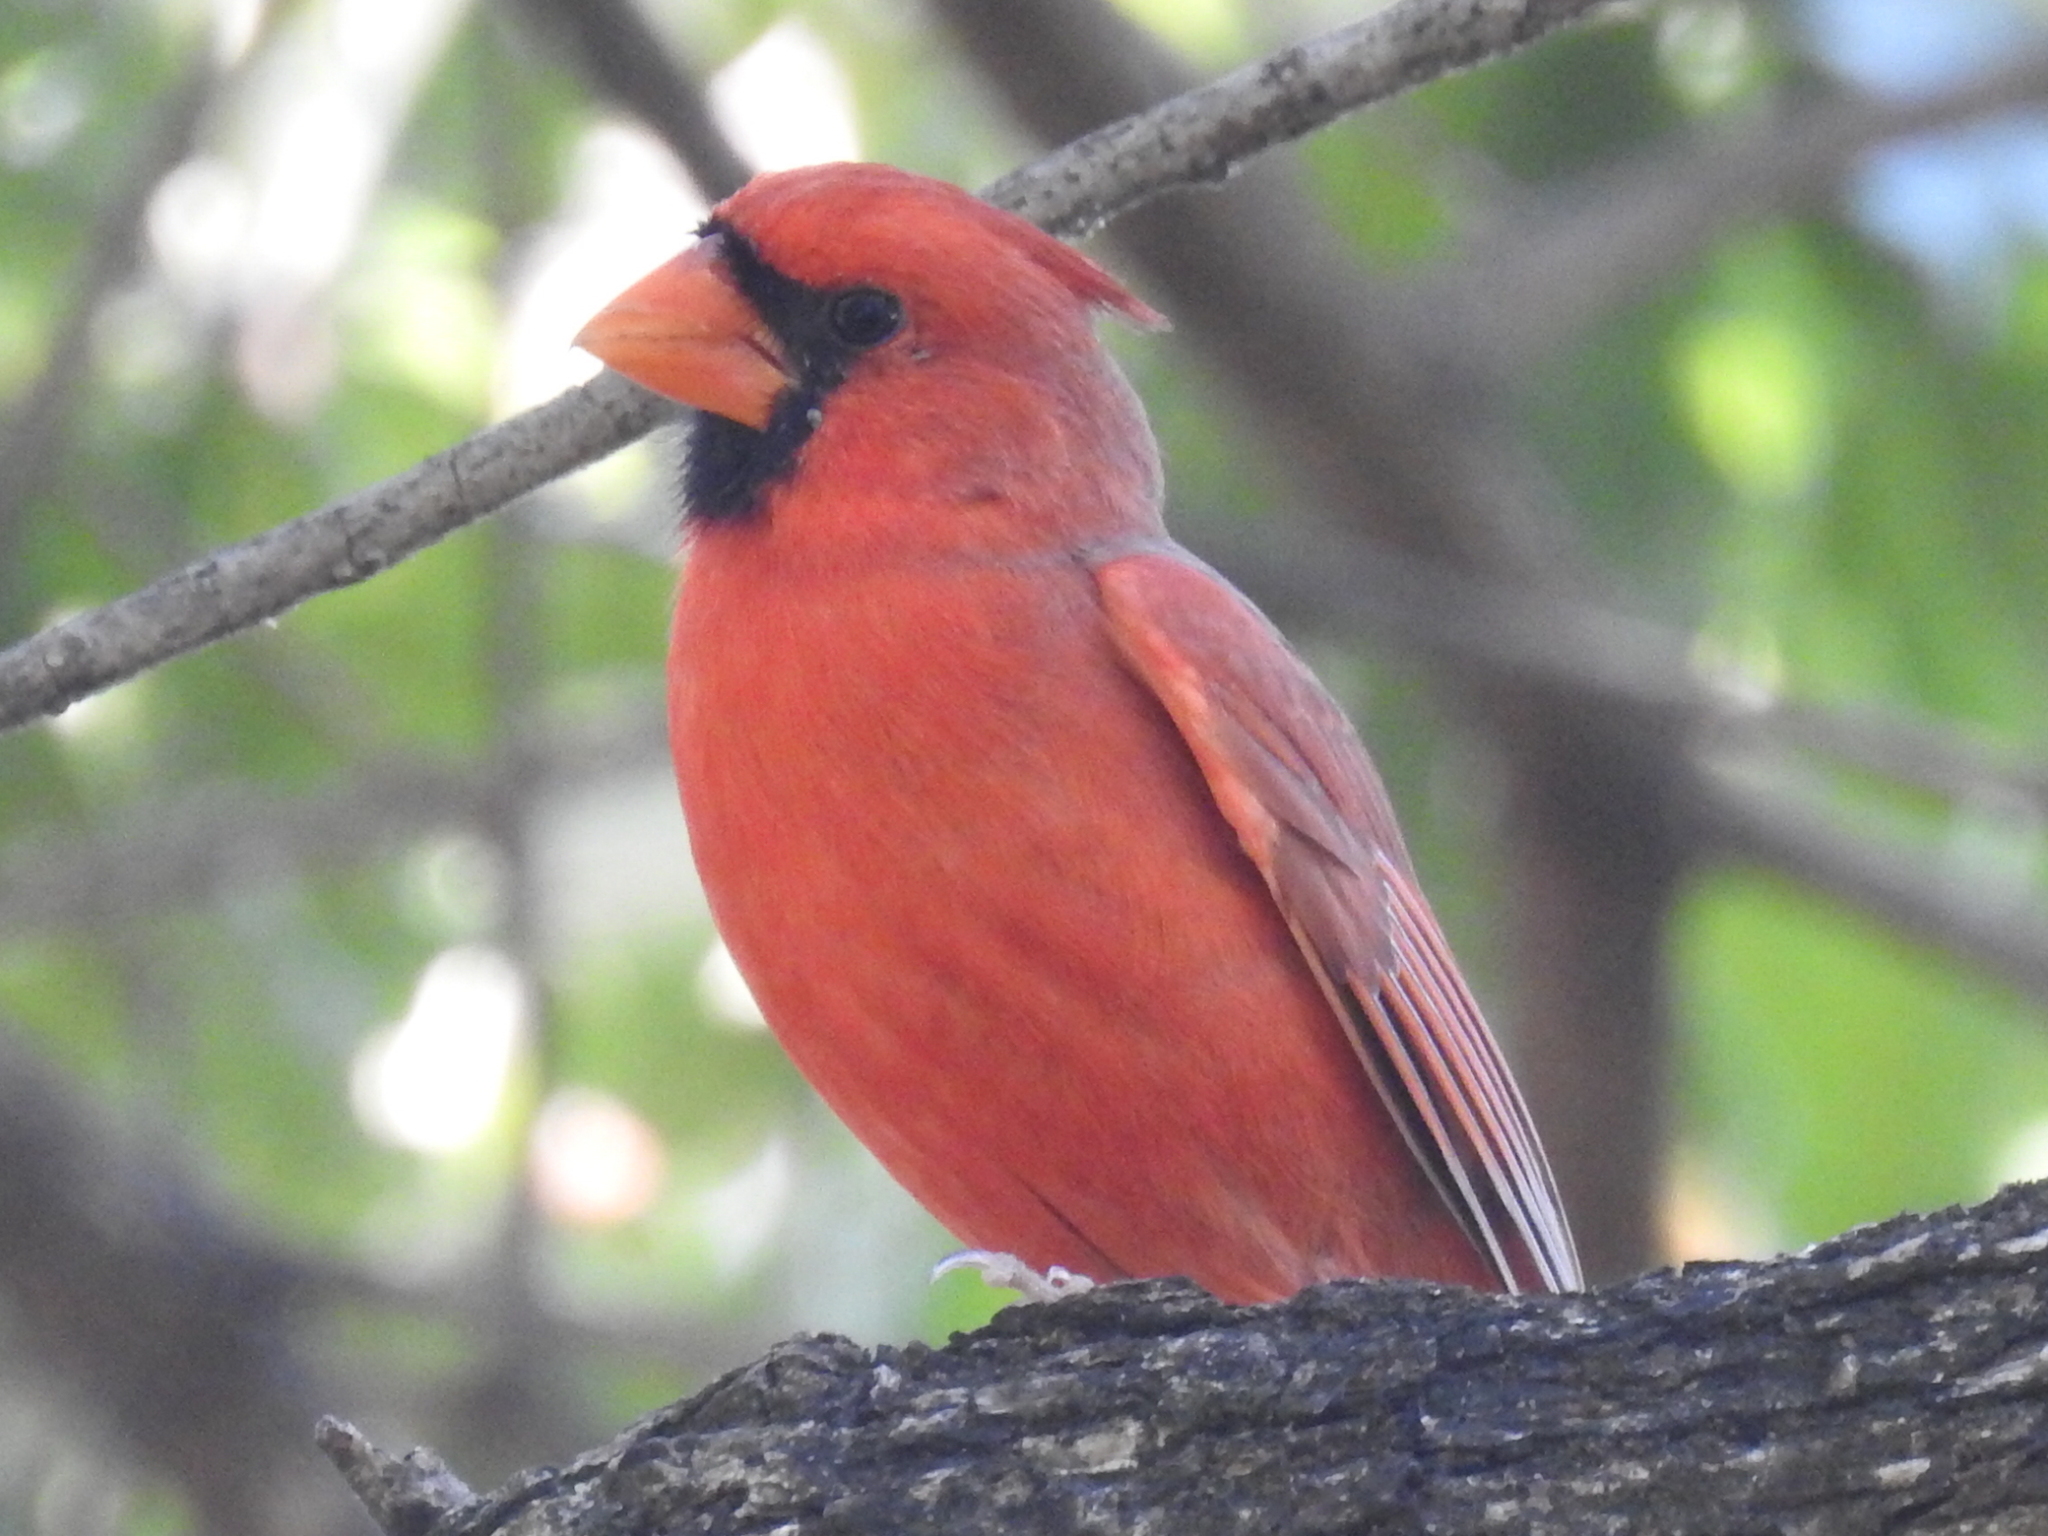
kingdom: Animalia
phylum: Chordata
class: Aves
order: Passeriformes
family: Cardinalidae
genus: Cardinalis
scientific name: Cardinalis cardinalis
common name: Northern cardinal
